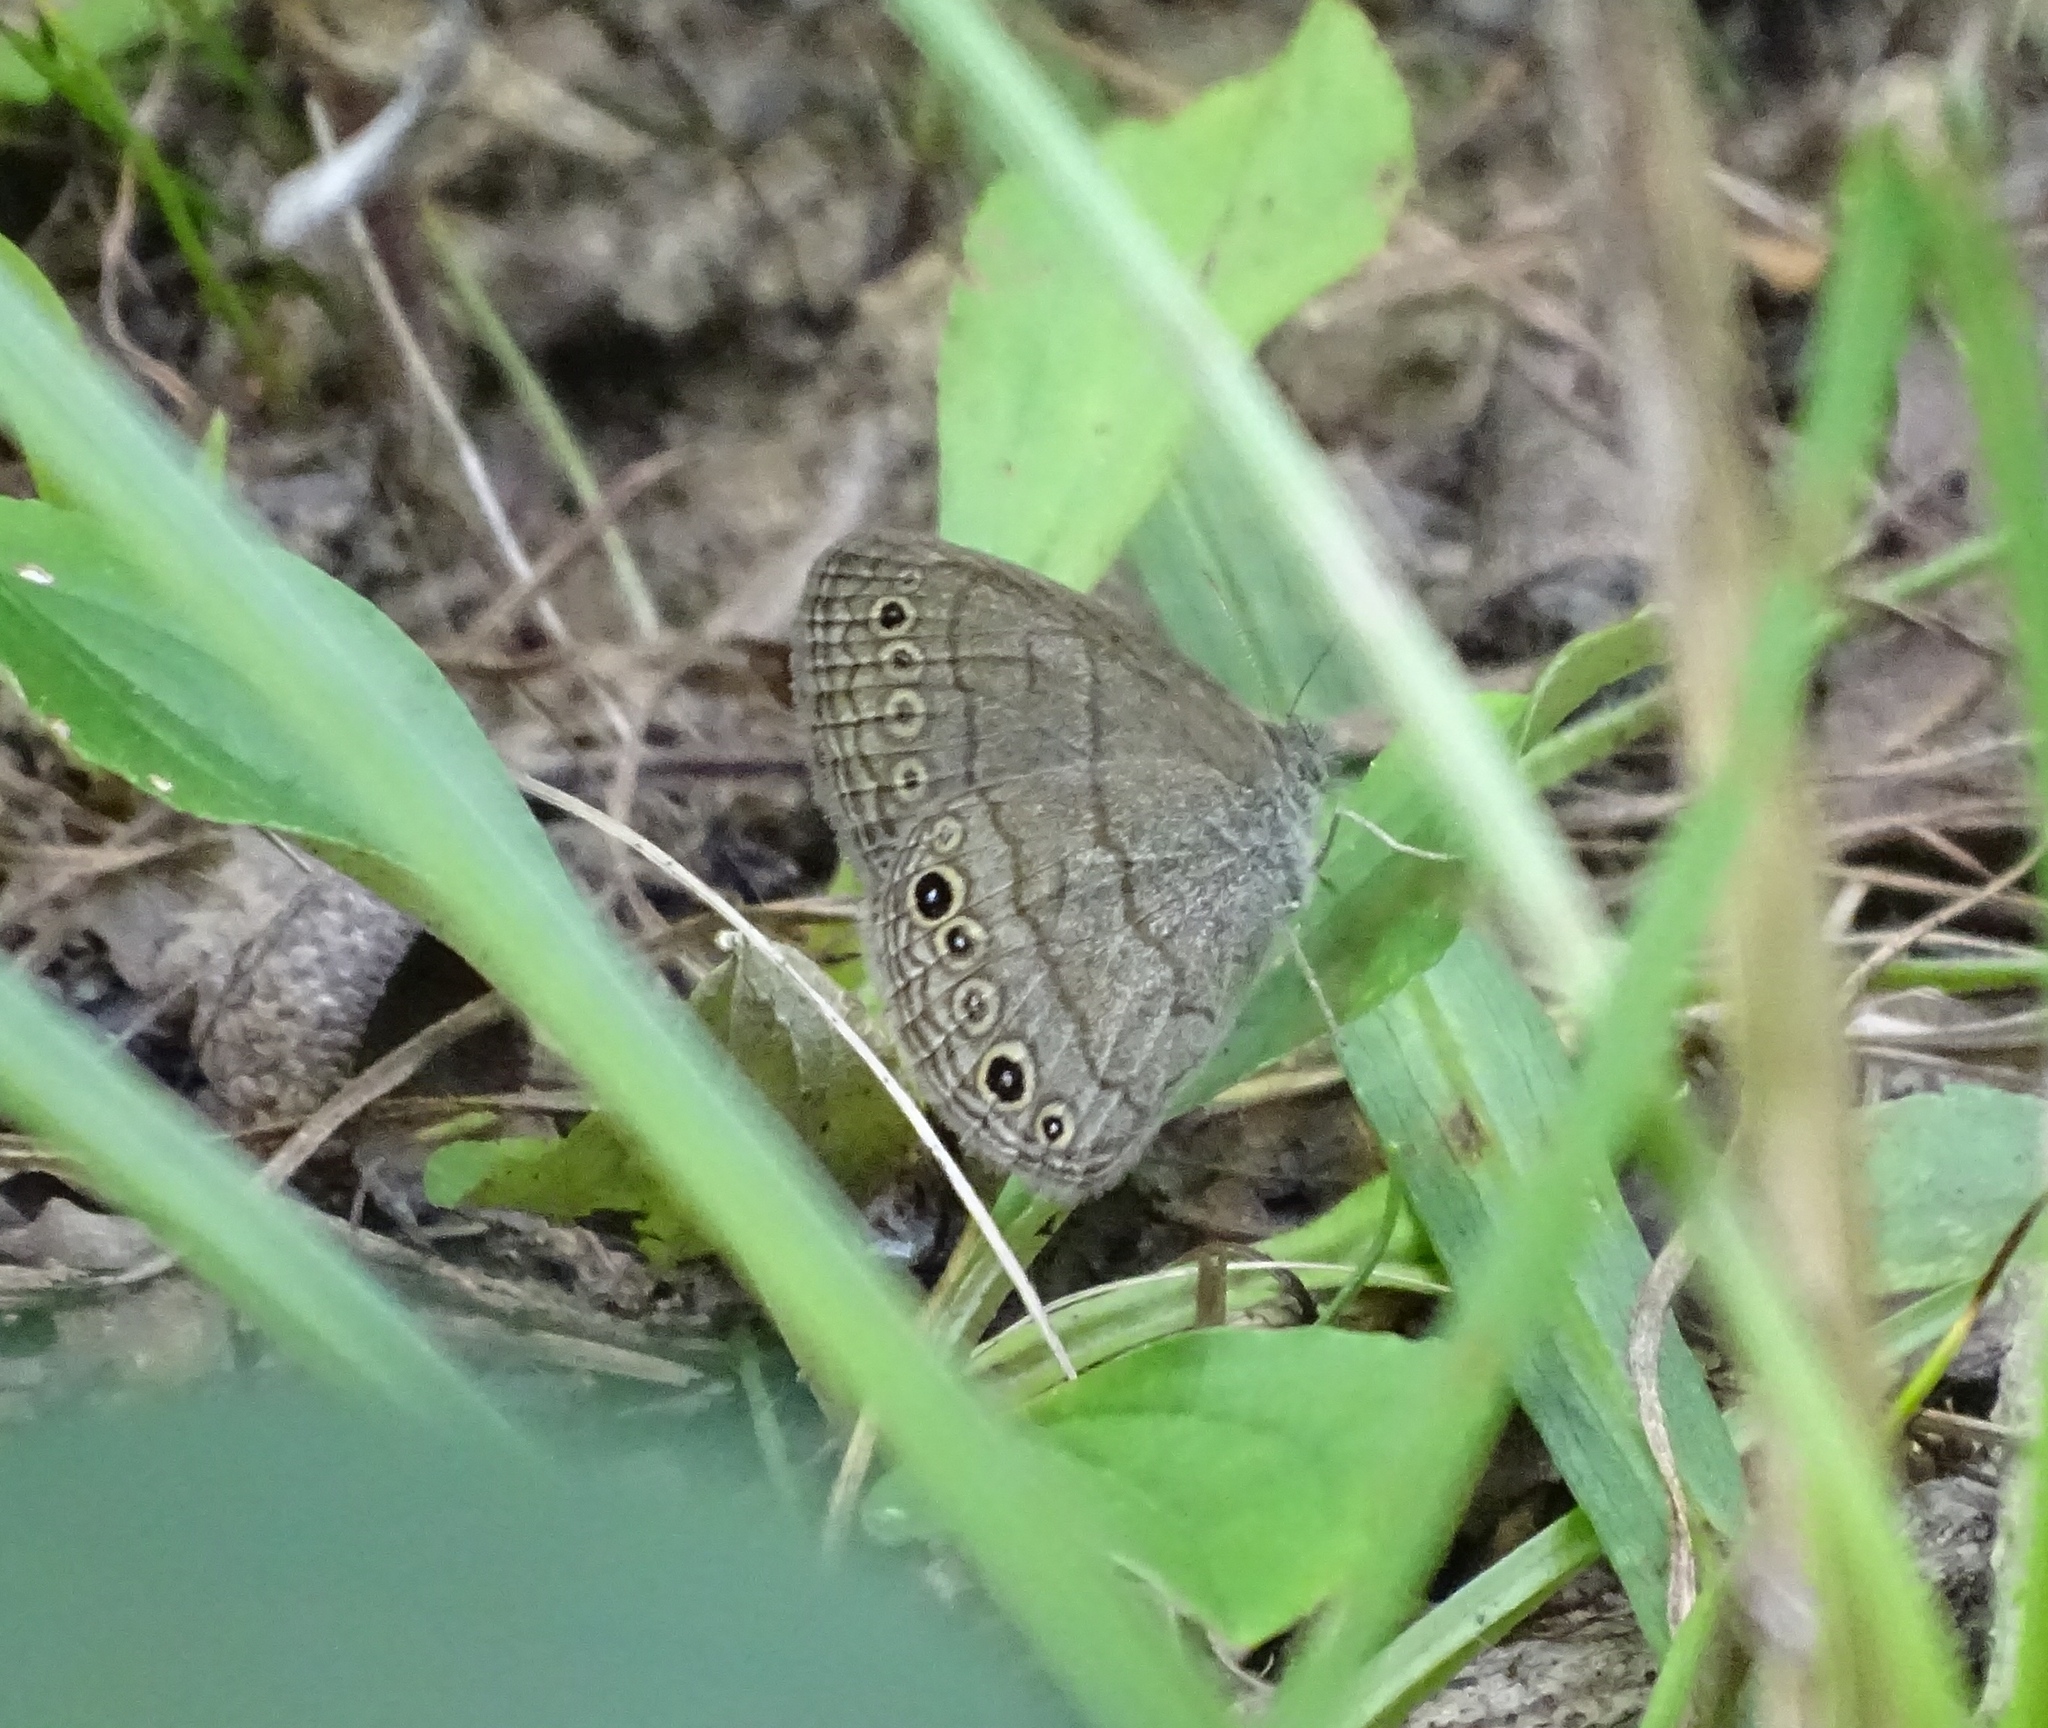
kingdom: Animalia
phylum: Arthropoda
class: Insecta
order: Lepidoptera
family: Nymphalidae
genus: Hermeuptychia
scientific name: Hermeuptychia hermes
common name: Hermes satyr
